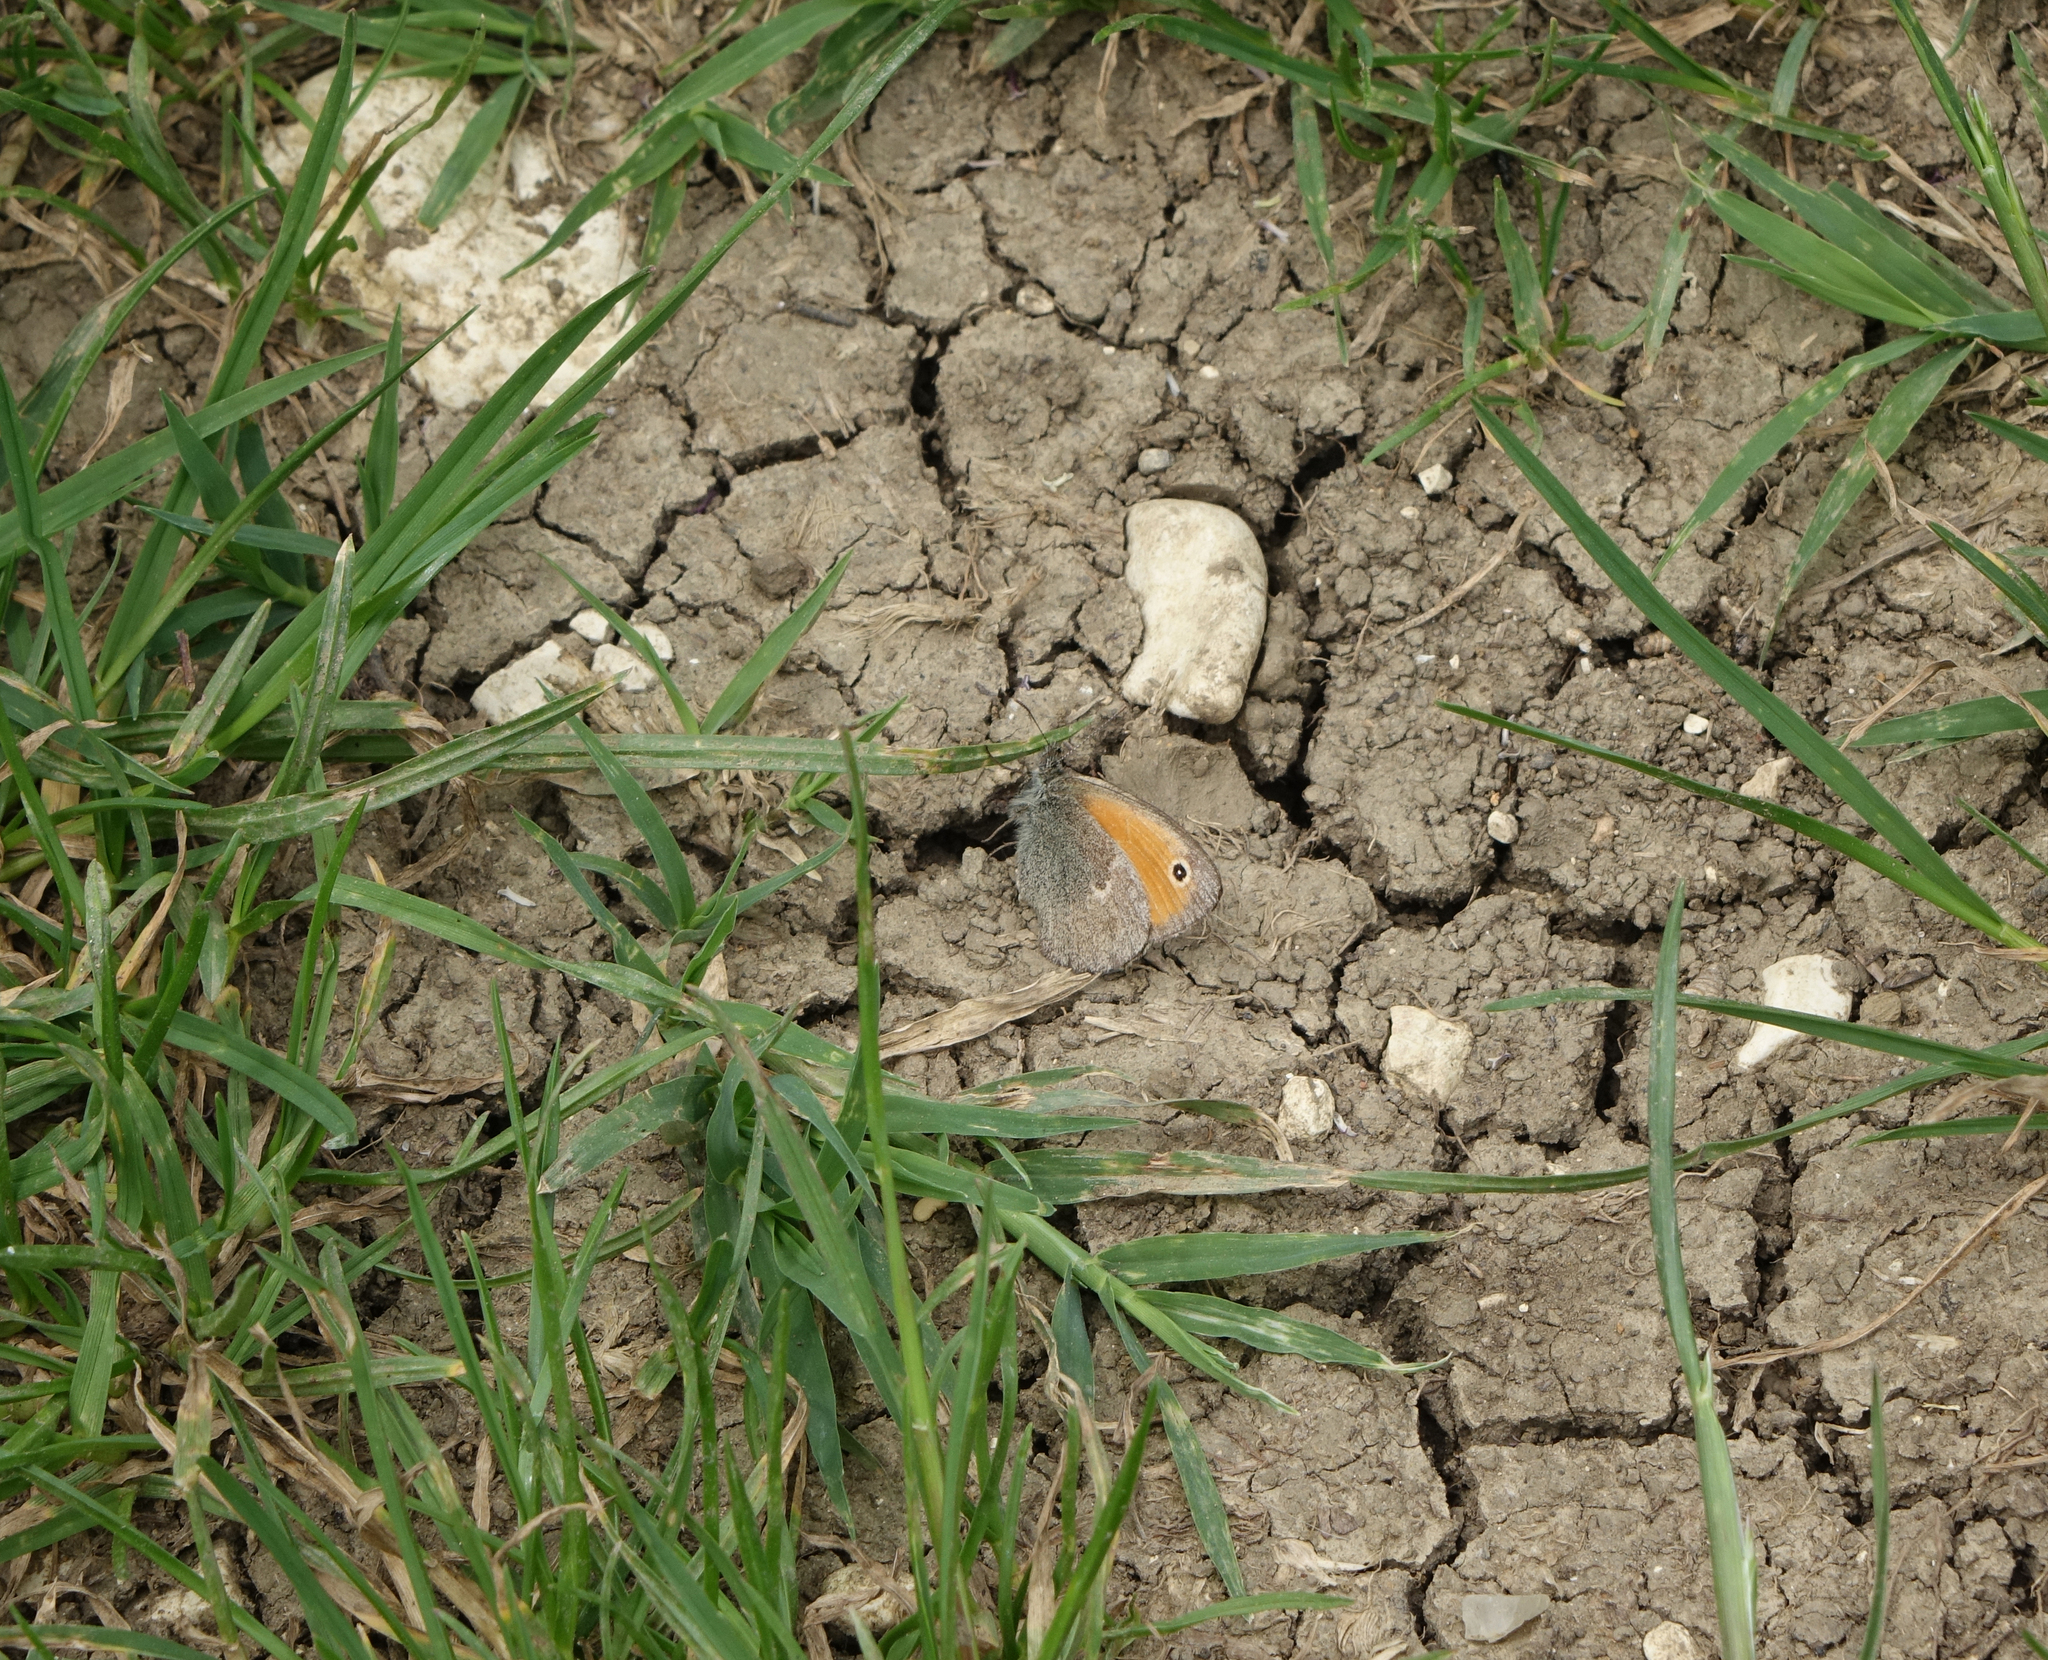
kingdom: Animalia
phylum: Arthropoda
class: Insecta
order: Lepidoptera
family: Nymphalidae
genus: Coenonympha
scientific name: Coenonympha pamphilus
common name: Small heath
